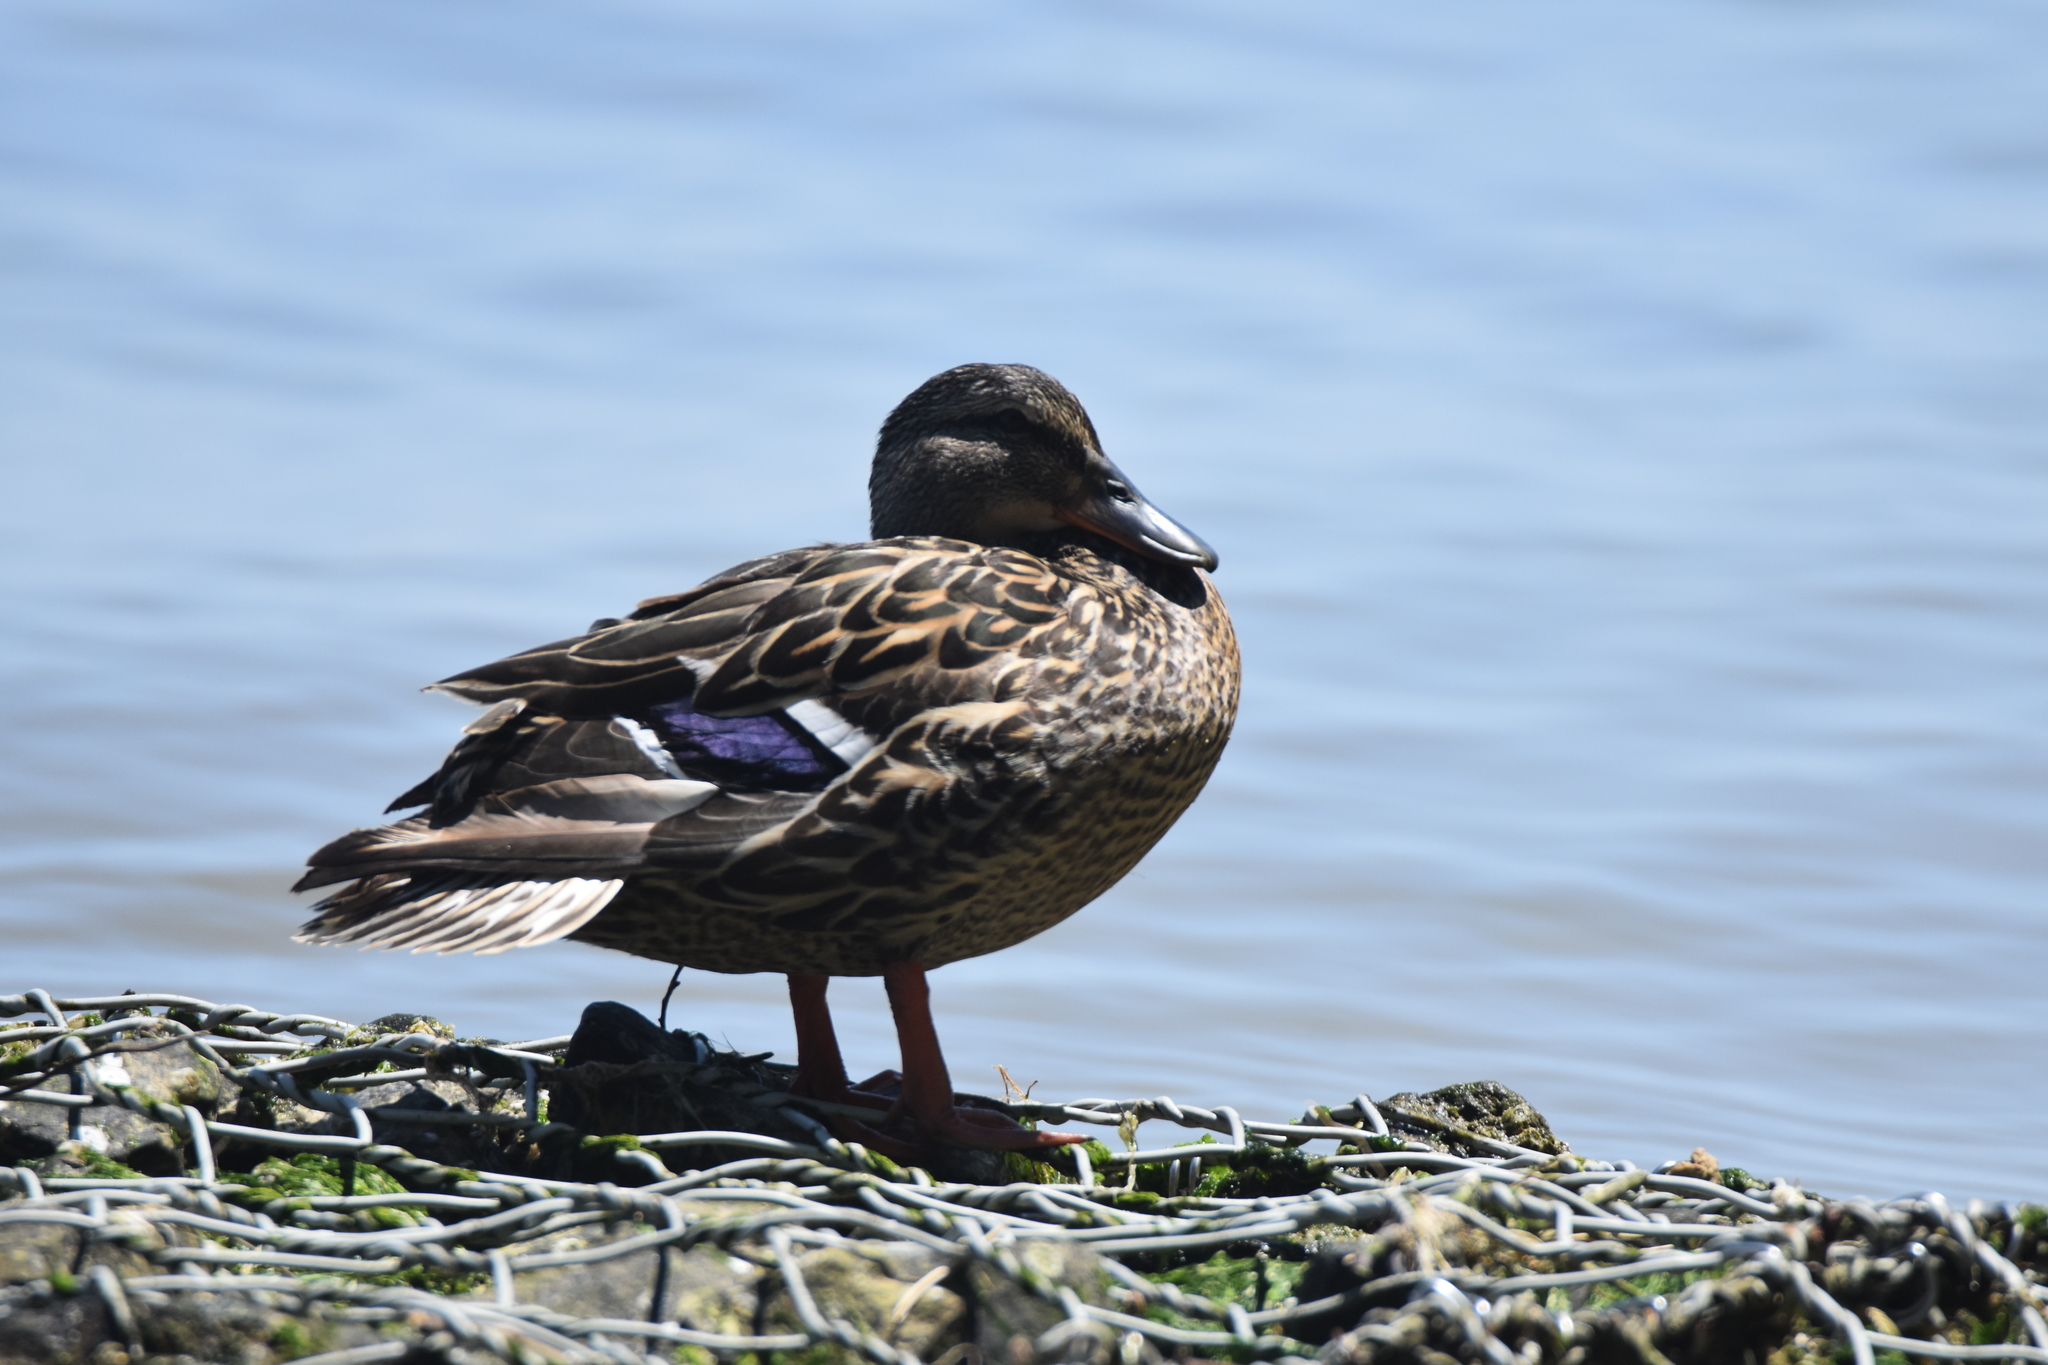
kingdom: Animalia
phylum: Chordata
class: Aves
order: Anseriformes
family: Anatidae
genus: Anas
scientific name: Anas platyrhynchos
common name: Mallard
